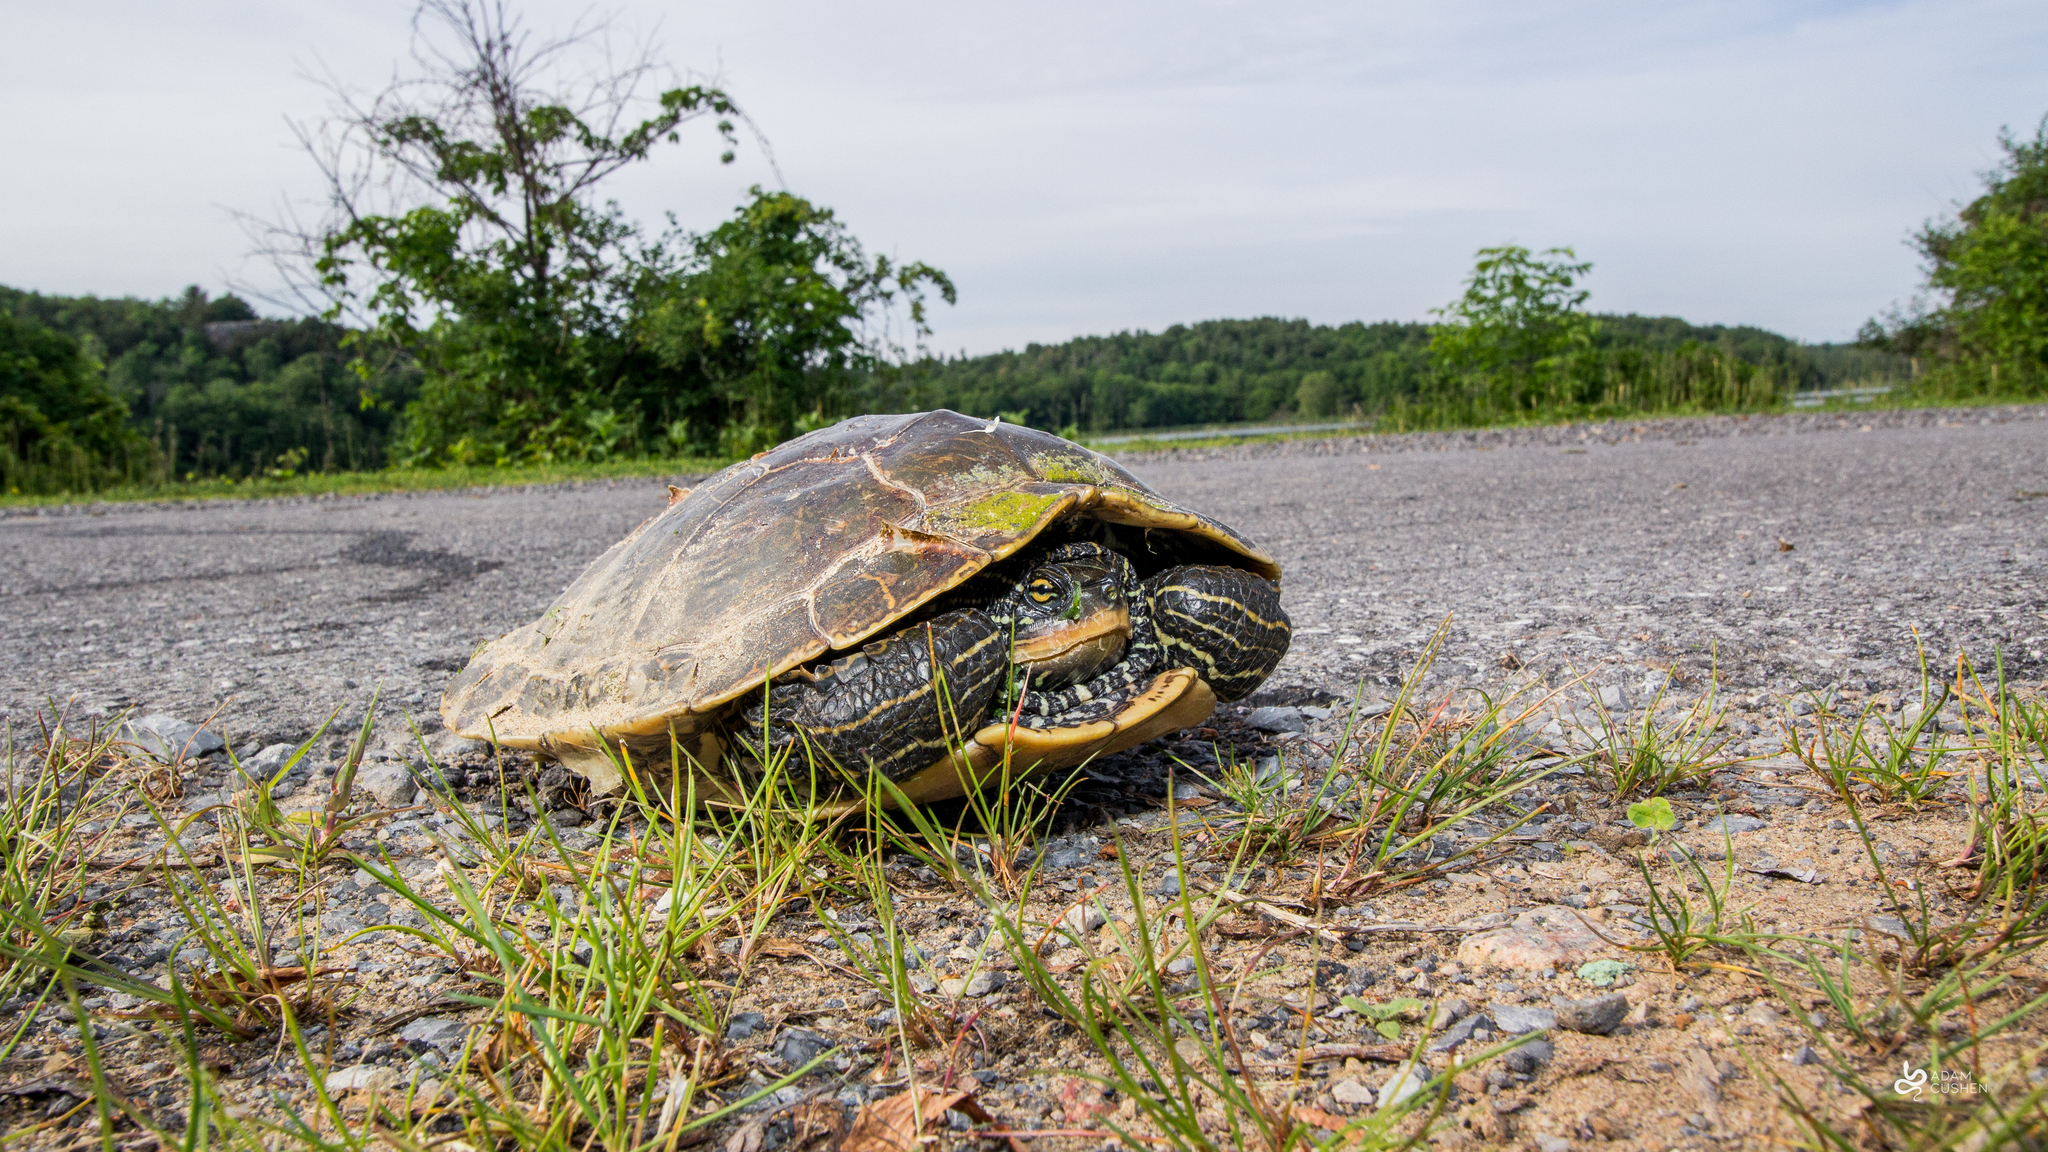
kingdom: Animalia
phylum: Chordata
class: Testudines
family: Emydidae
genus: Graptemys
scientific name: Graptemys geographica
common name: Common map turtle
